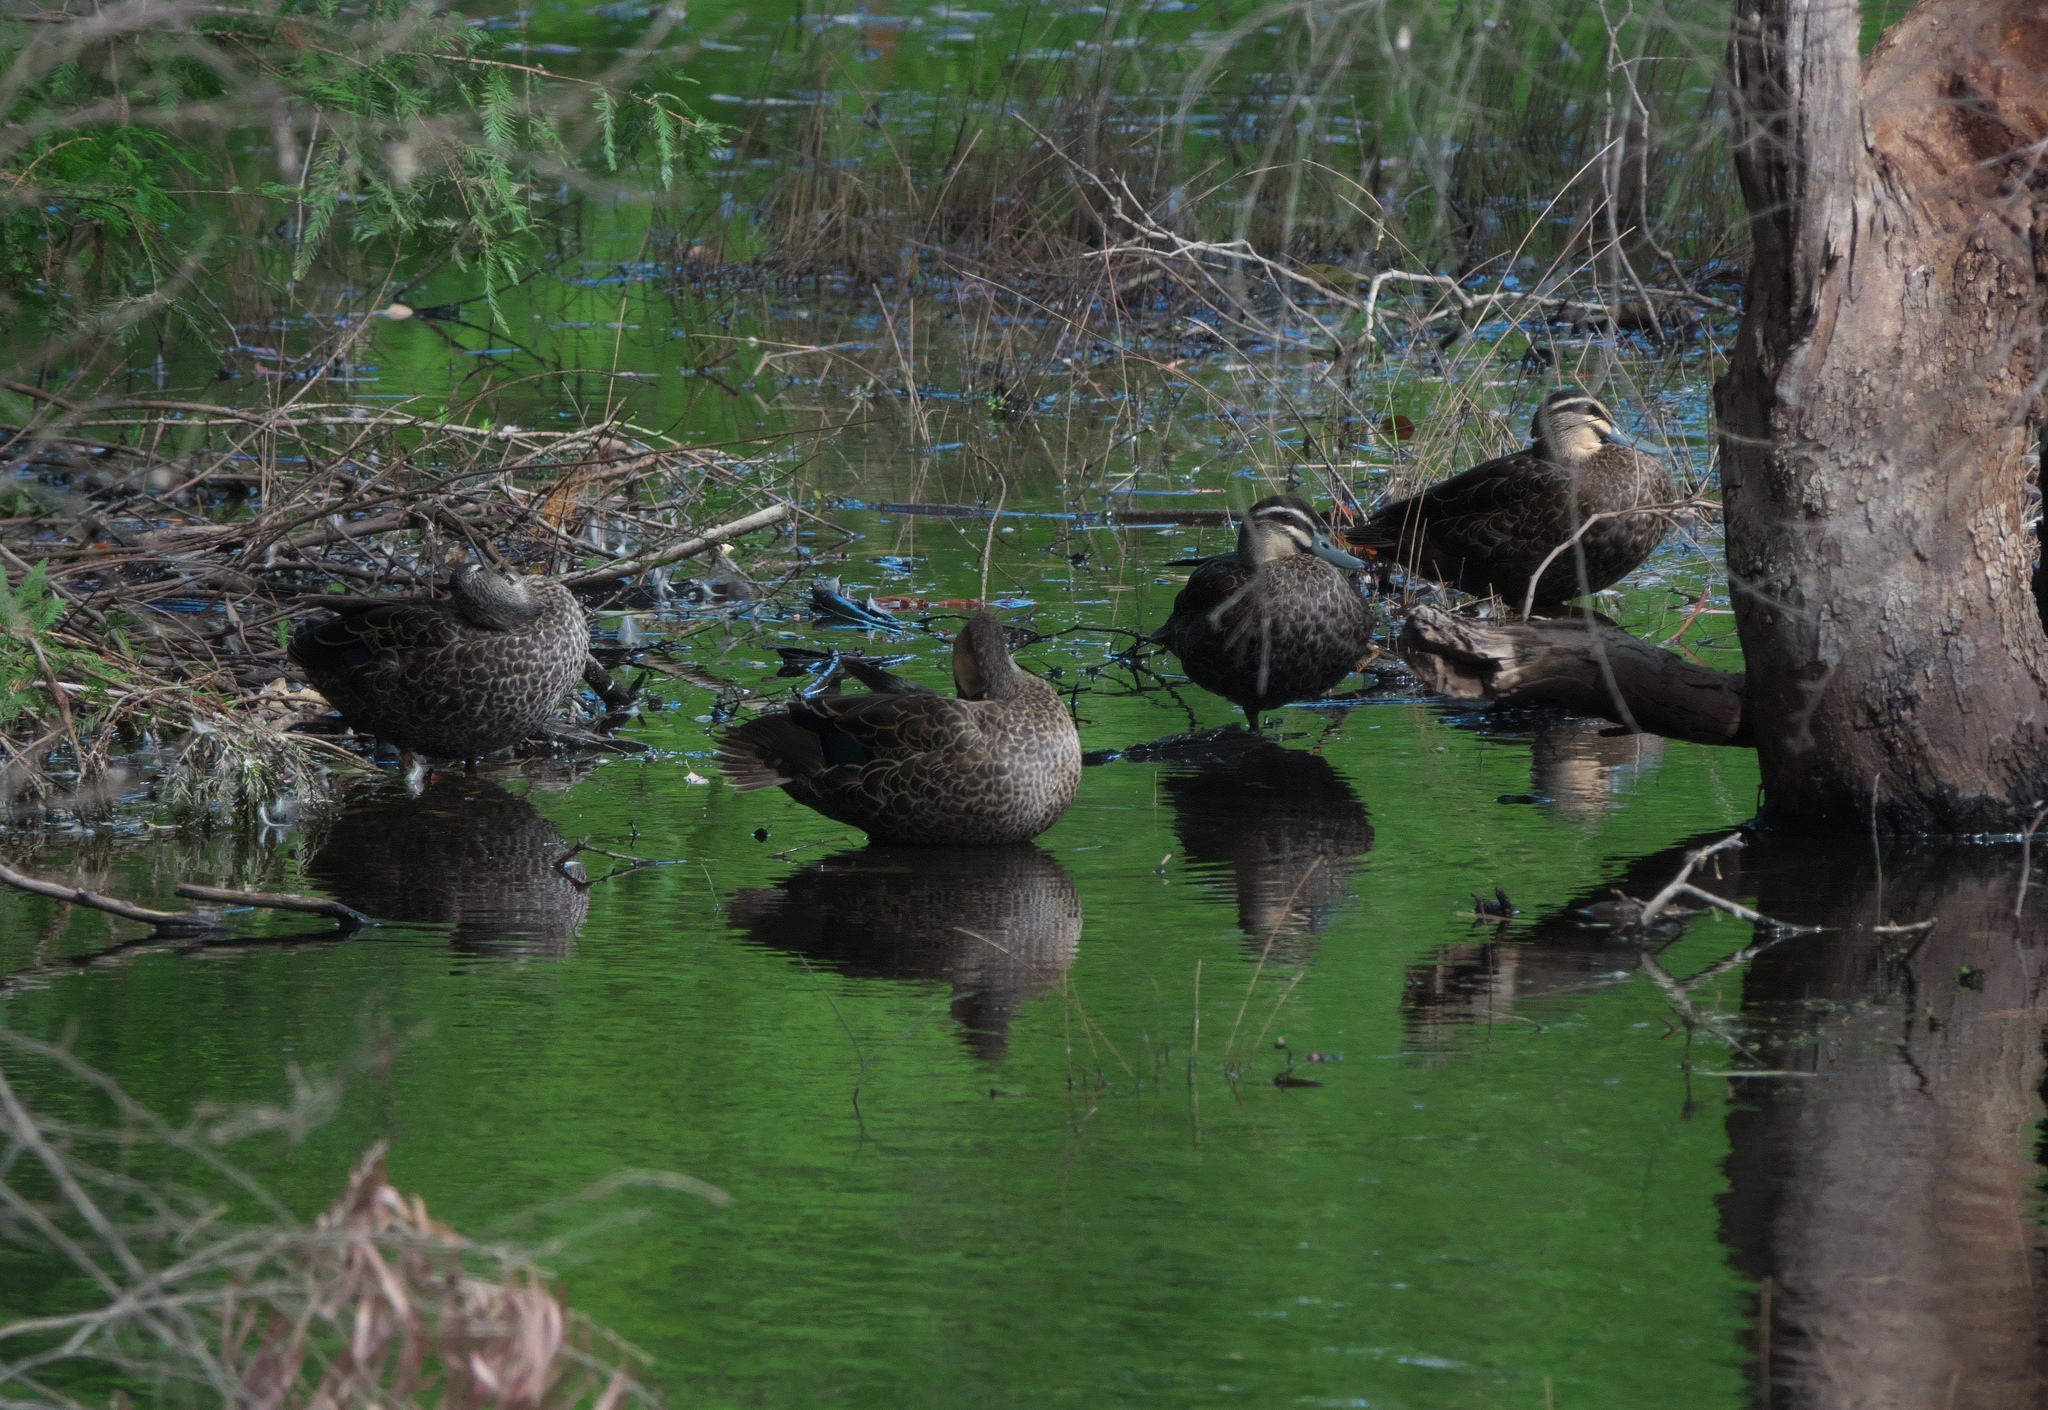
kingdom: Animalia
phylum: Chordata
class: Aves
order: Anseriformes
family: Anatidae
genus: Anas
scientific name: Anas superciliosa
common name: Pacific black duck
